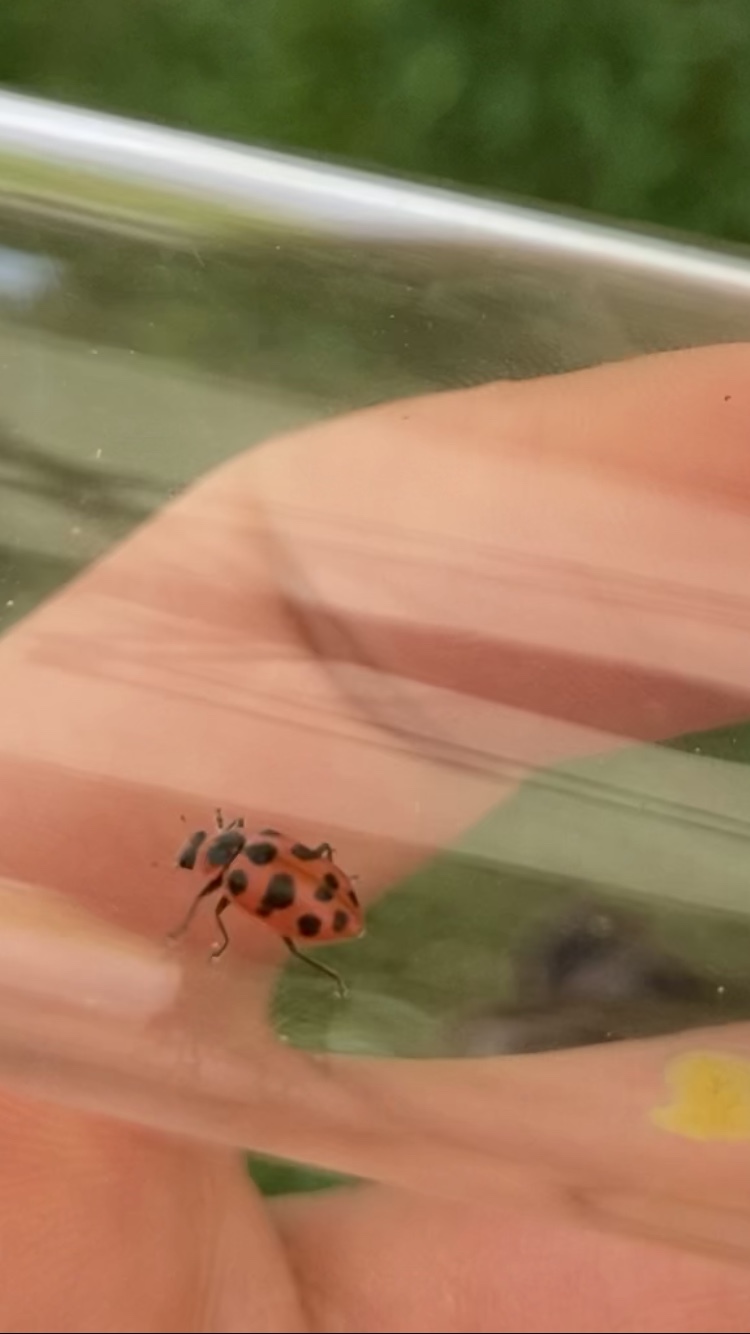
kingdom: Animalia
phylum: Arthropoda
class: Insecta
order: Coleoptera
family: Coccinellidae
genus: Coleomegilla
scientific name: Coleomegilla maculata
